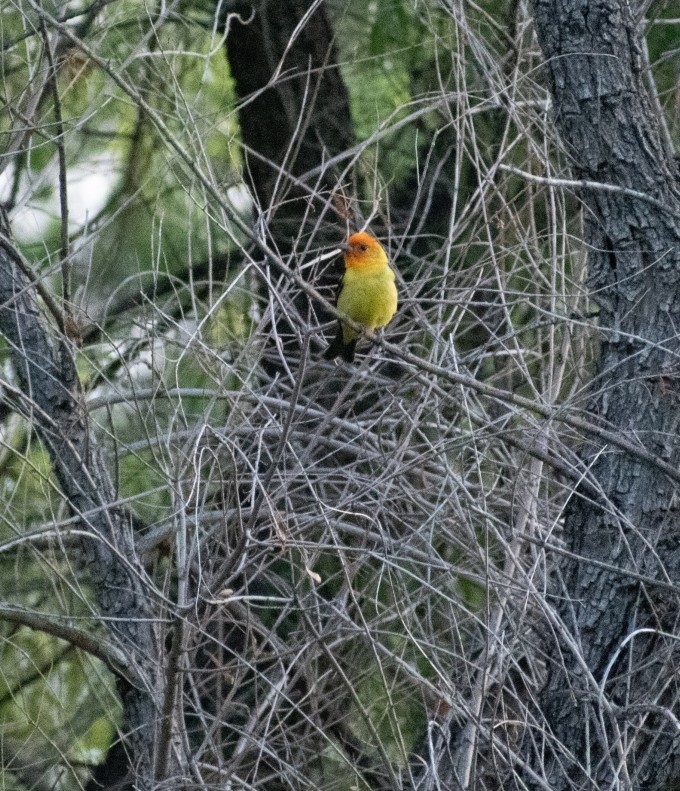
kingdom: Animalia
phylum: Chordata
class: Aves
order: Passeriformes
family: Cardinalidae
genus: Piranga
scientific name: Piranga ludoviciana
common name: Western tanager
